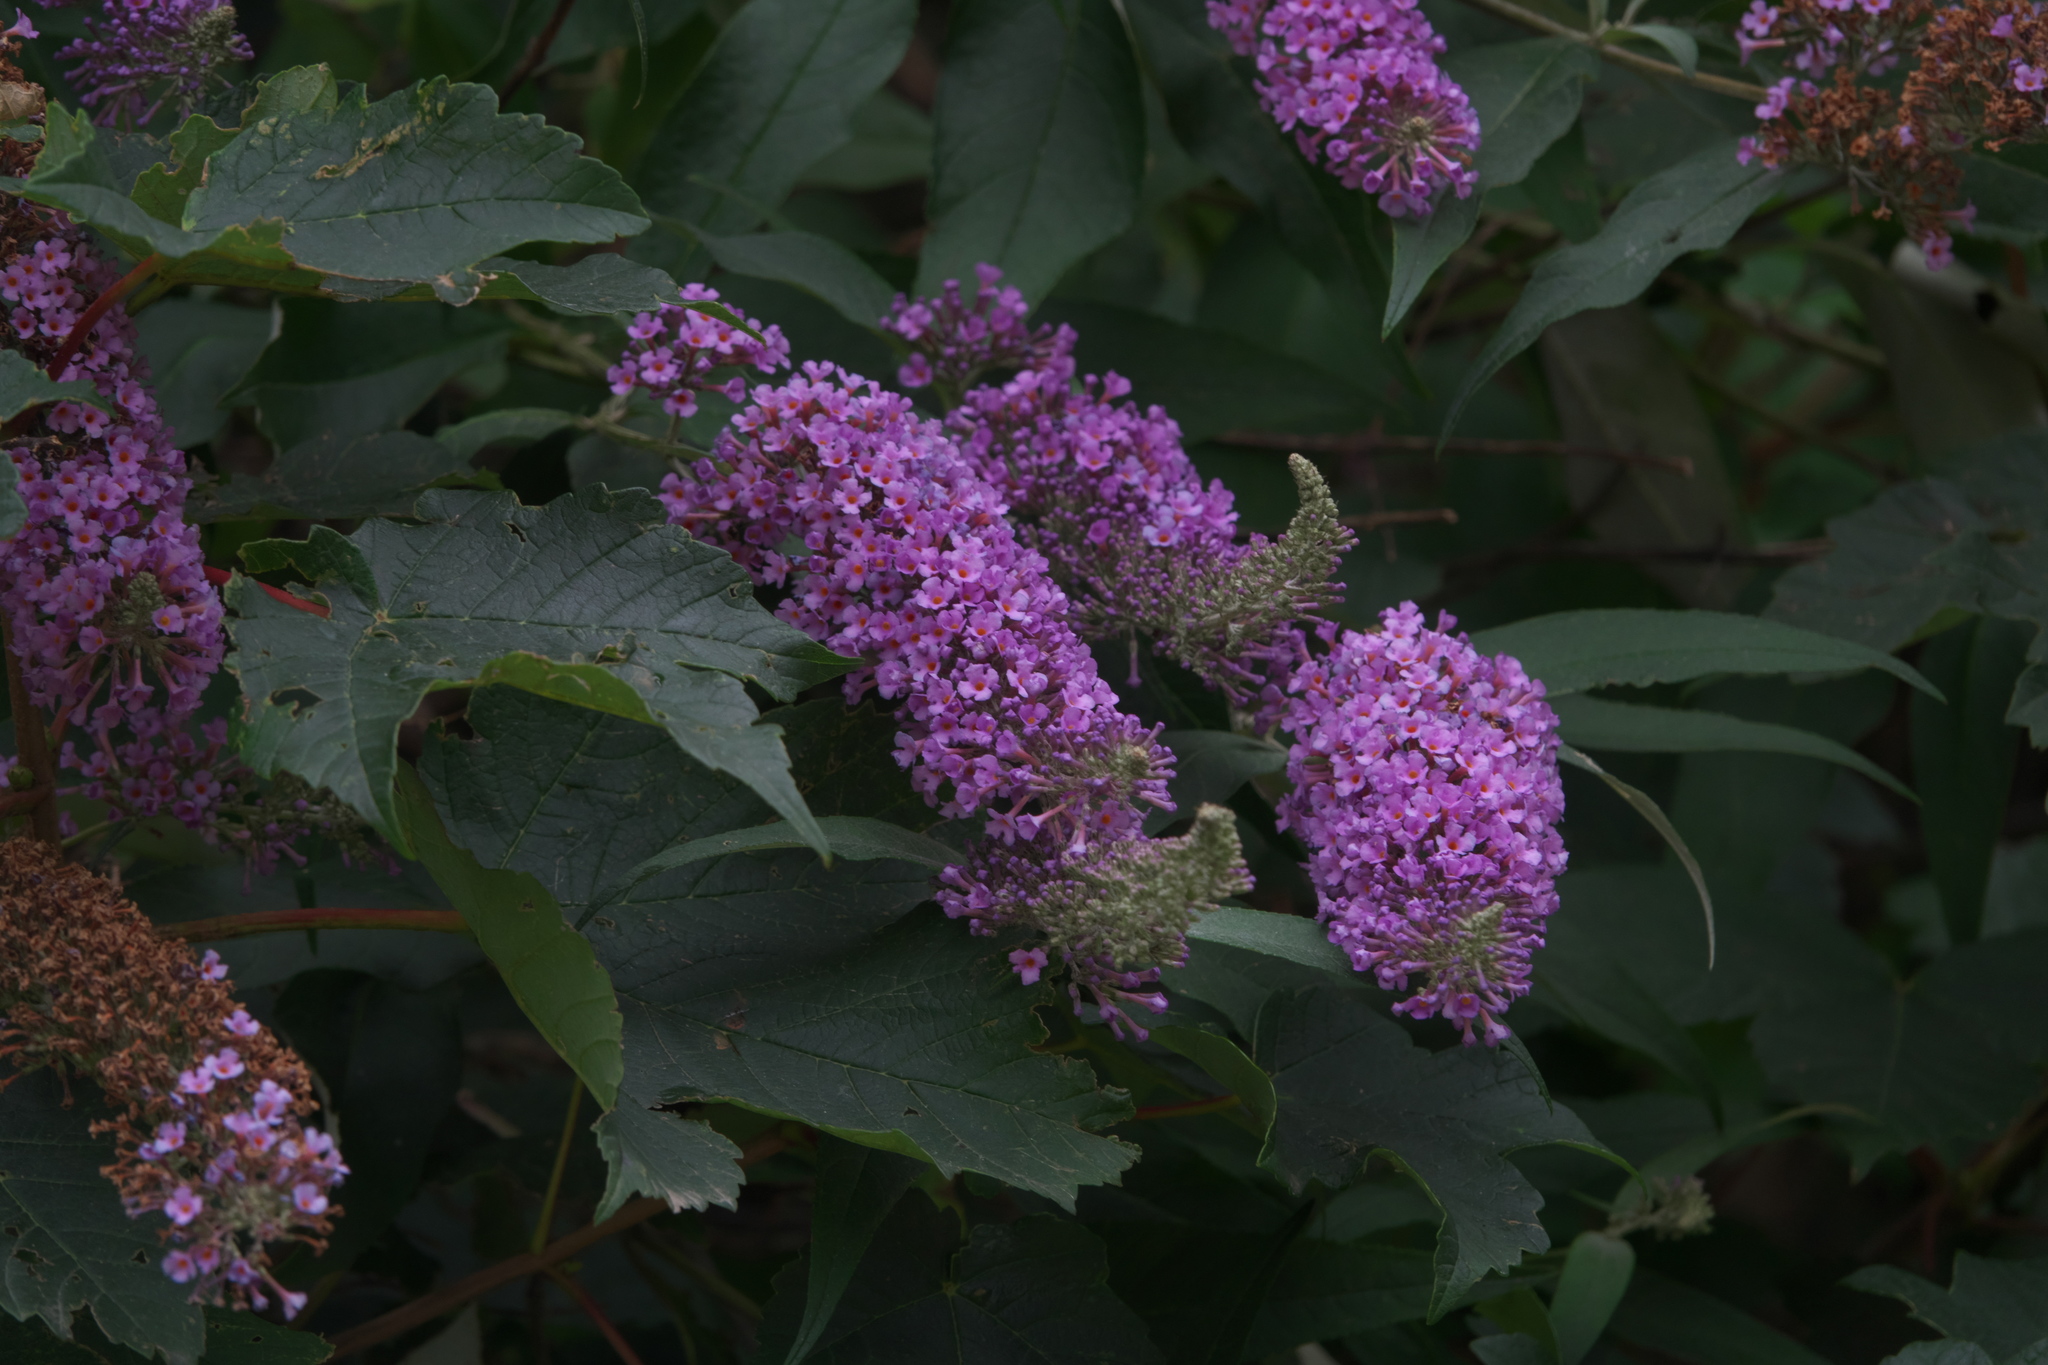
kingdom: Plantae
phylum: Tracheophyta
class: Magnoliopsida
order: Lamiales
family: Scrophulariaceae
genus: Buddleja
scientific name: Buddleja davidii
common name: Butterfly-bush
